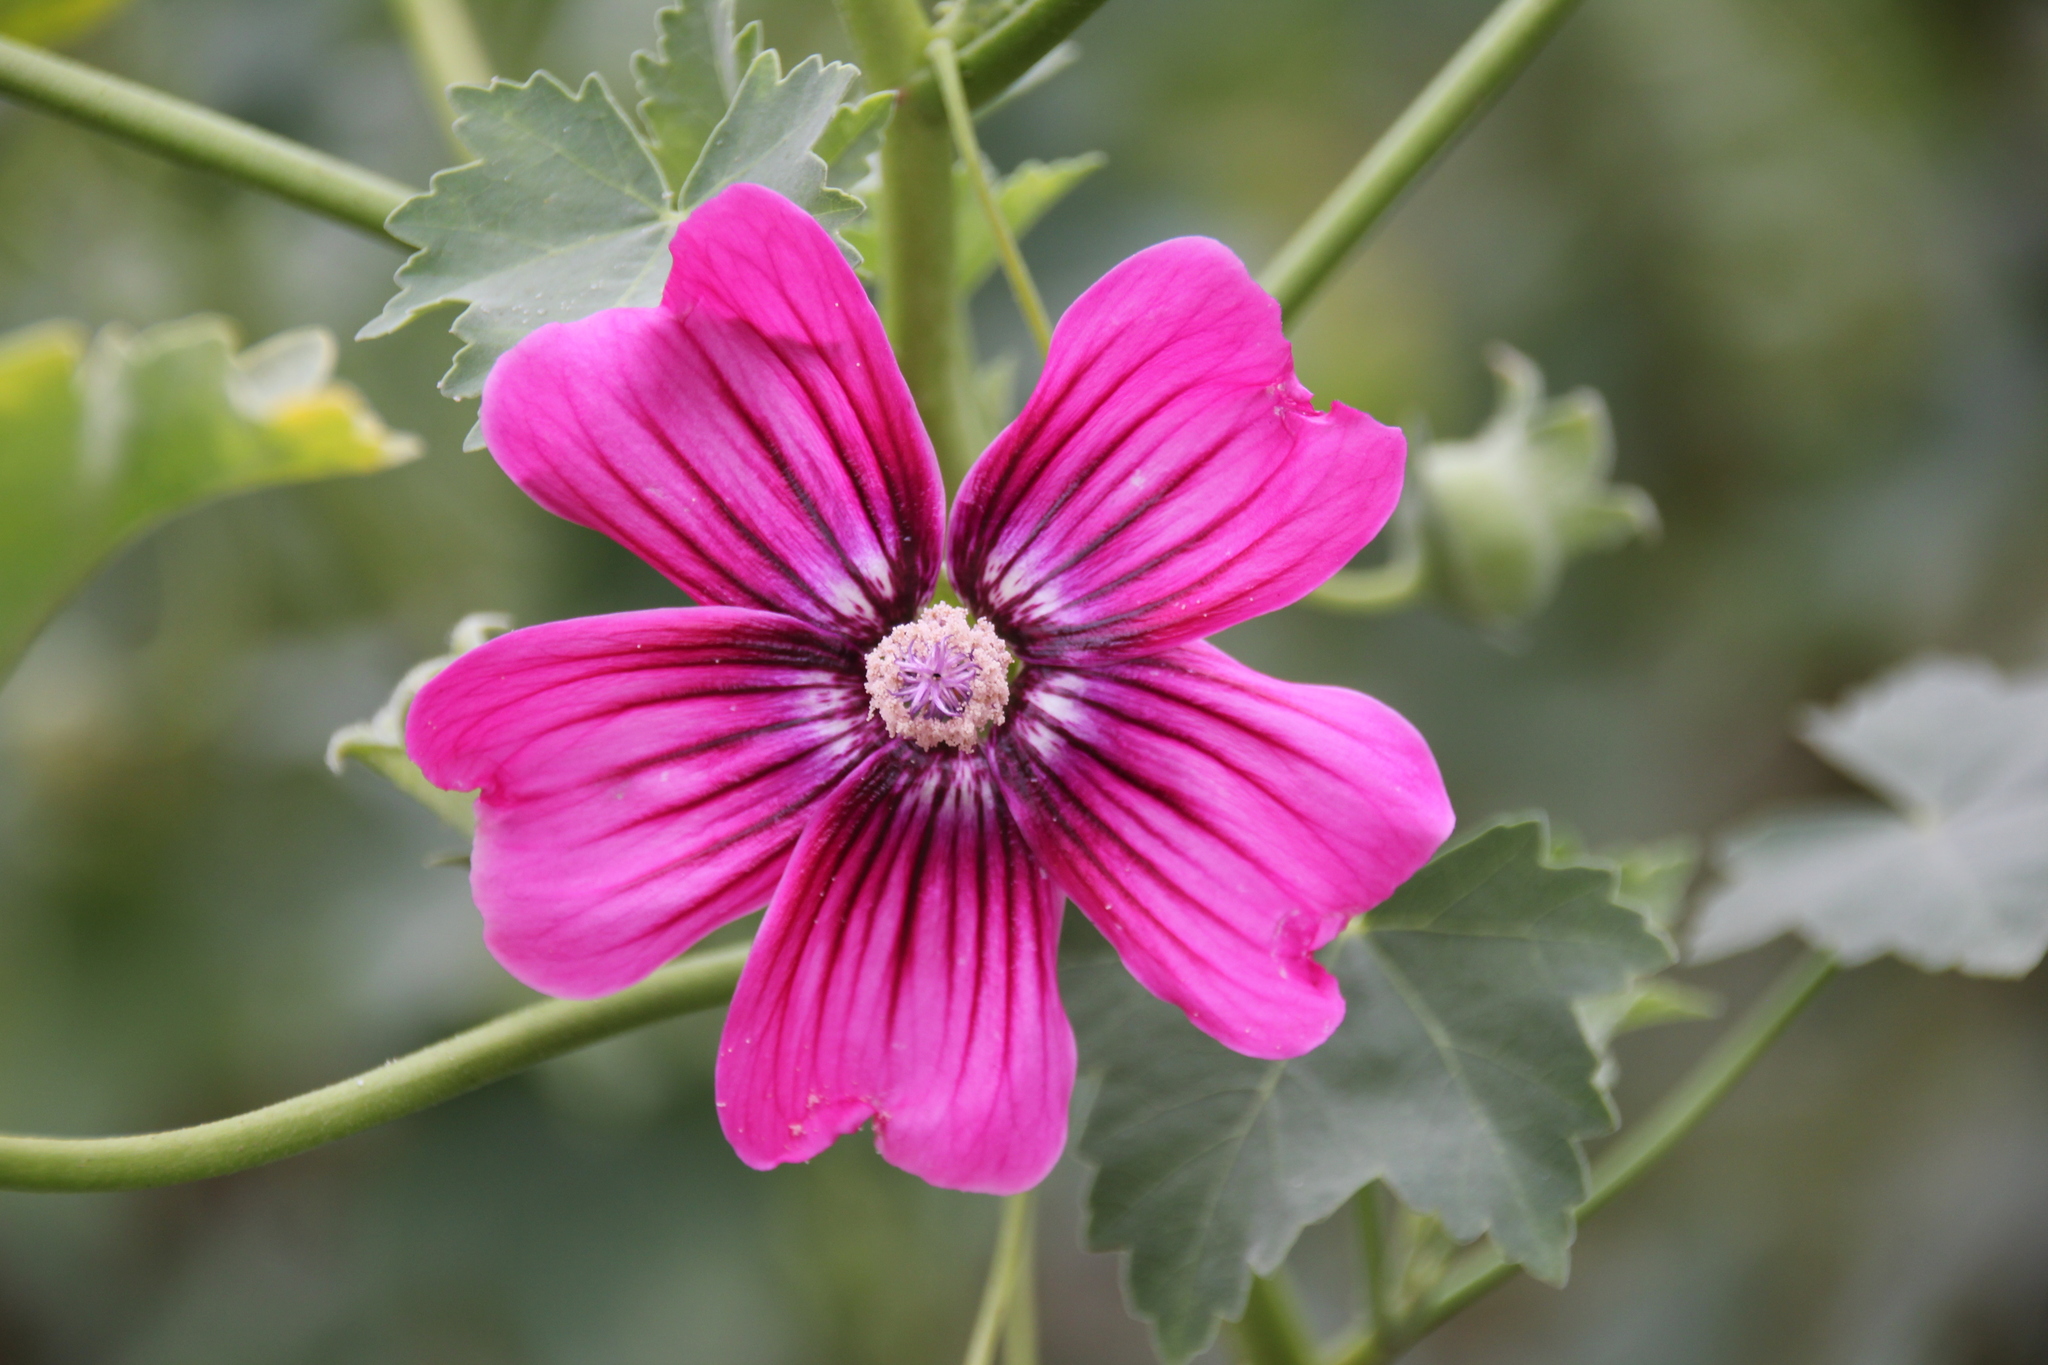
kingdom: Plantae
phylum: Tracheophyta
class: Magnoliopsida
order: Malvales
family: Malvaceae
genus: Malva
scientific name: Malva assurgentiflora
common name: Island mallow
